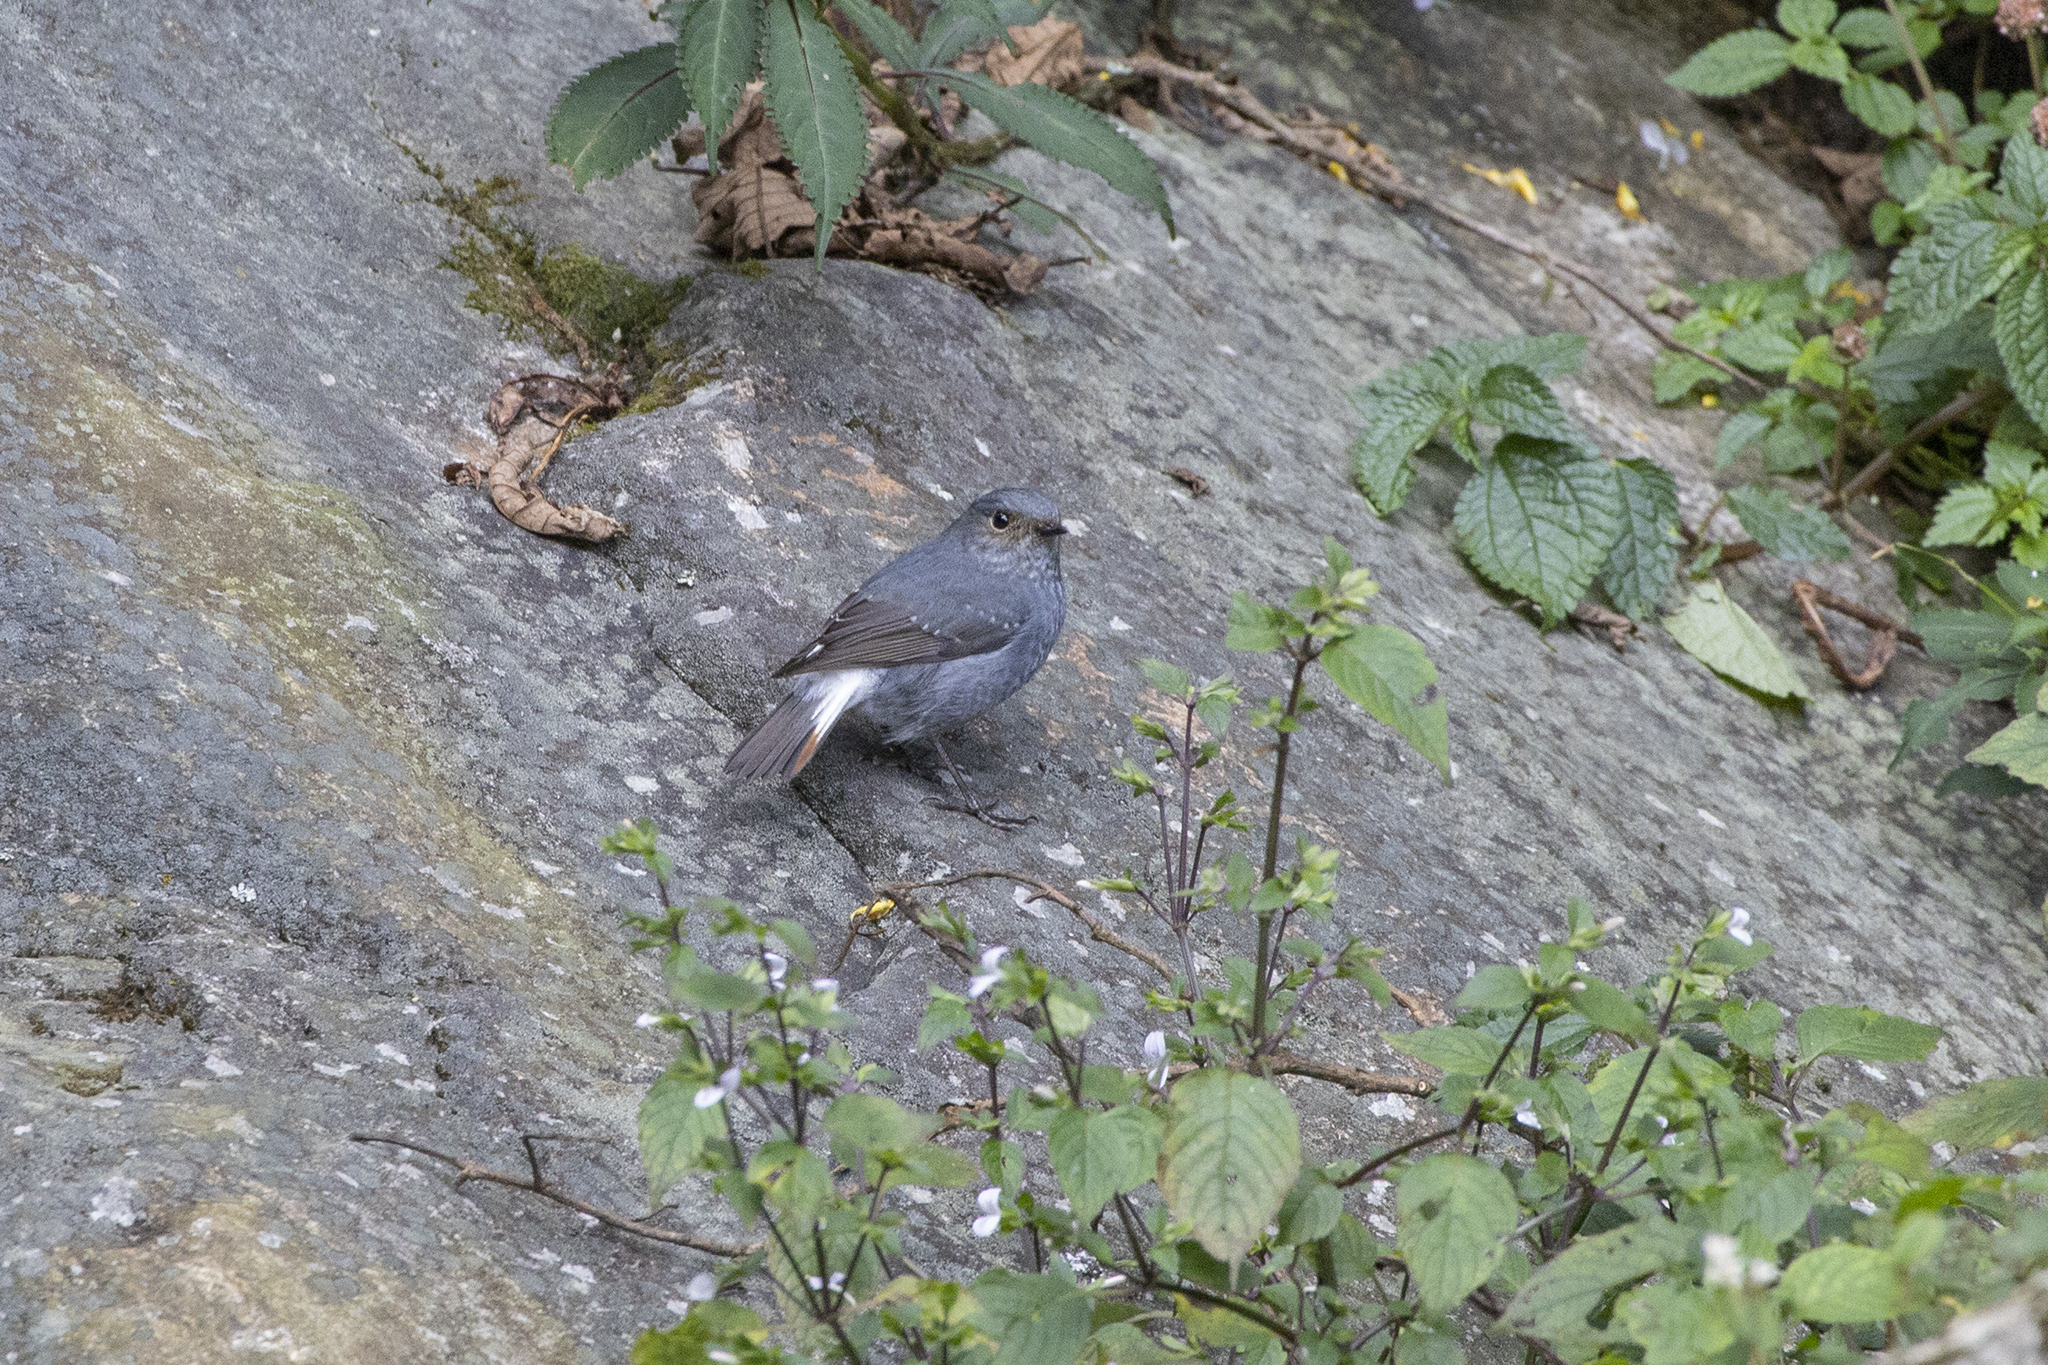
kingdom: Animalia
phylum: Chordata
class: Aves
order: Passeriformes
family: Muscicapidae
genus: Phoenicurus
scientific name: Phoenicurus fuliginosus
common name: Plumbeous water redstart
